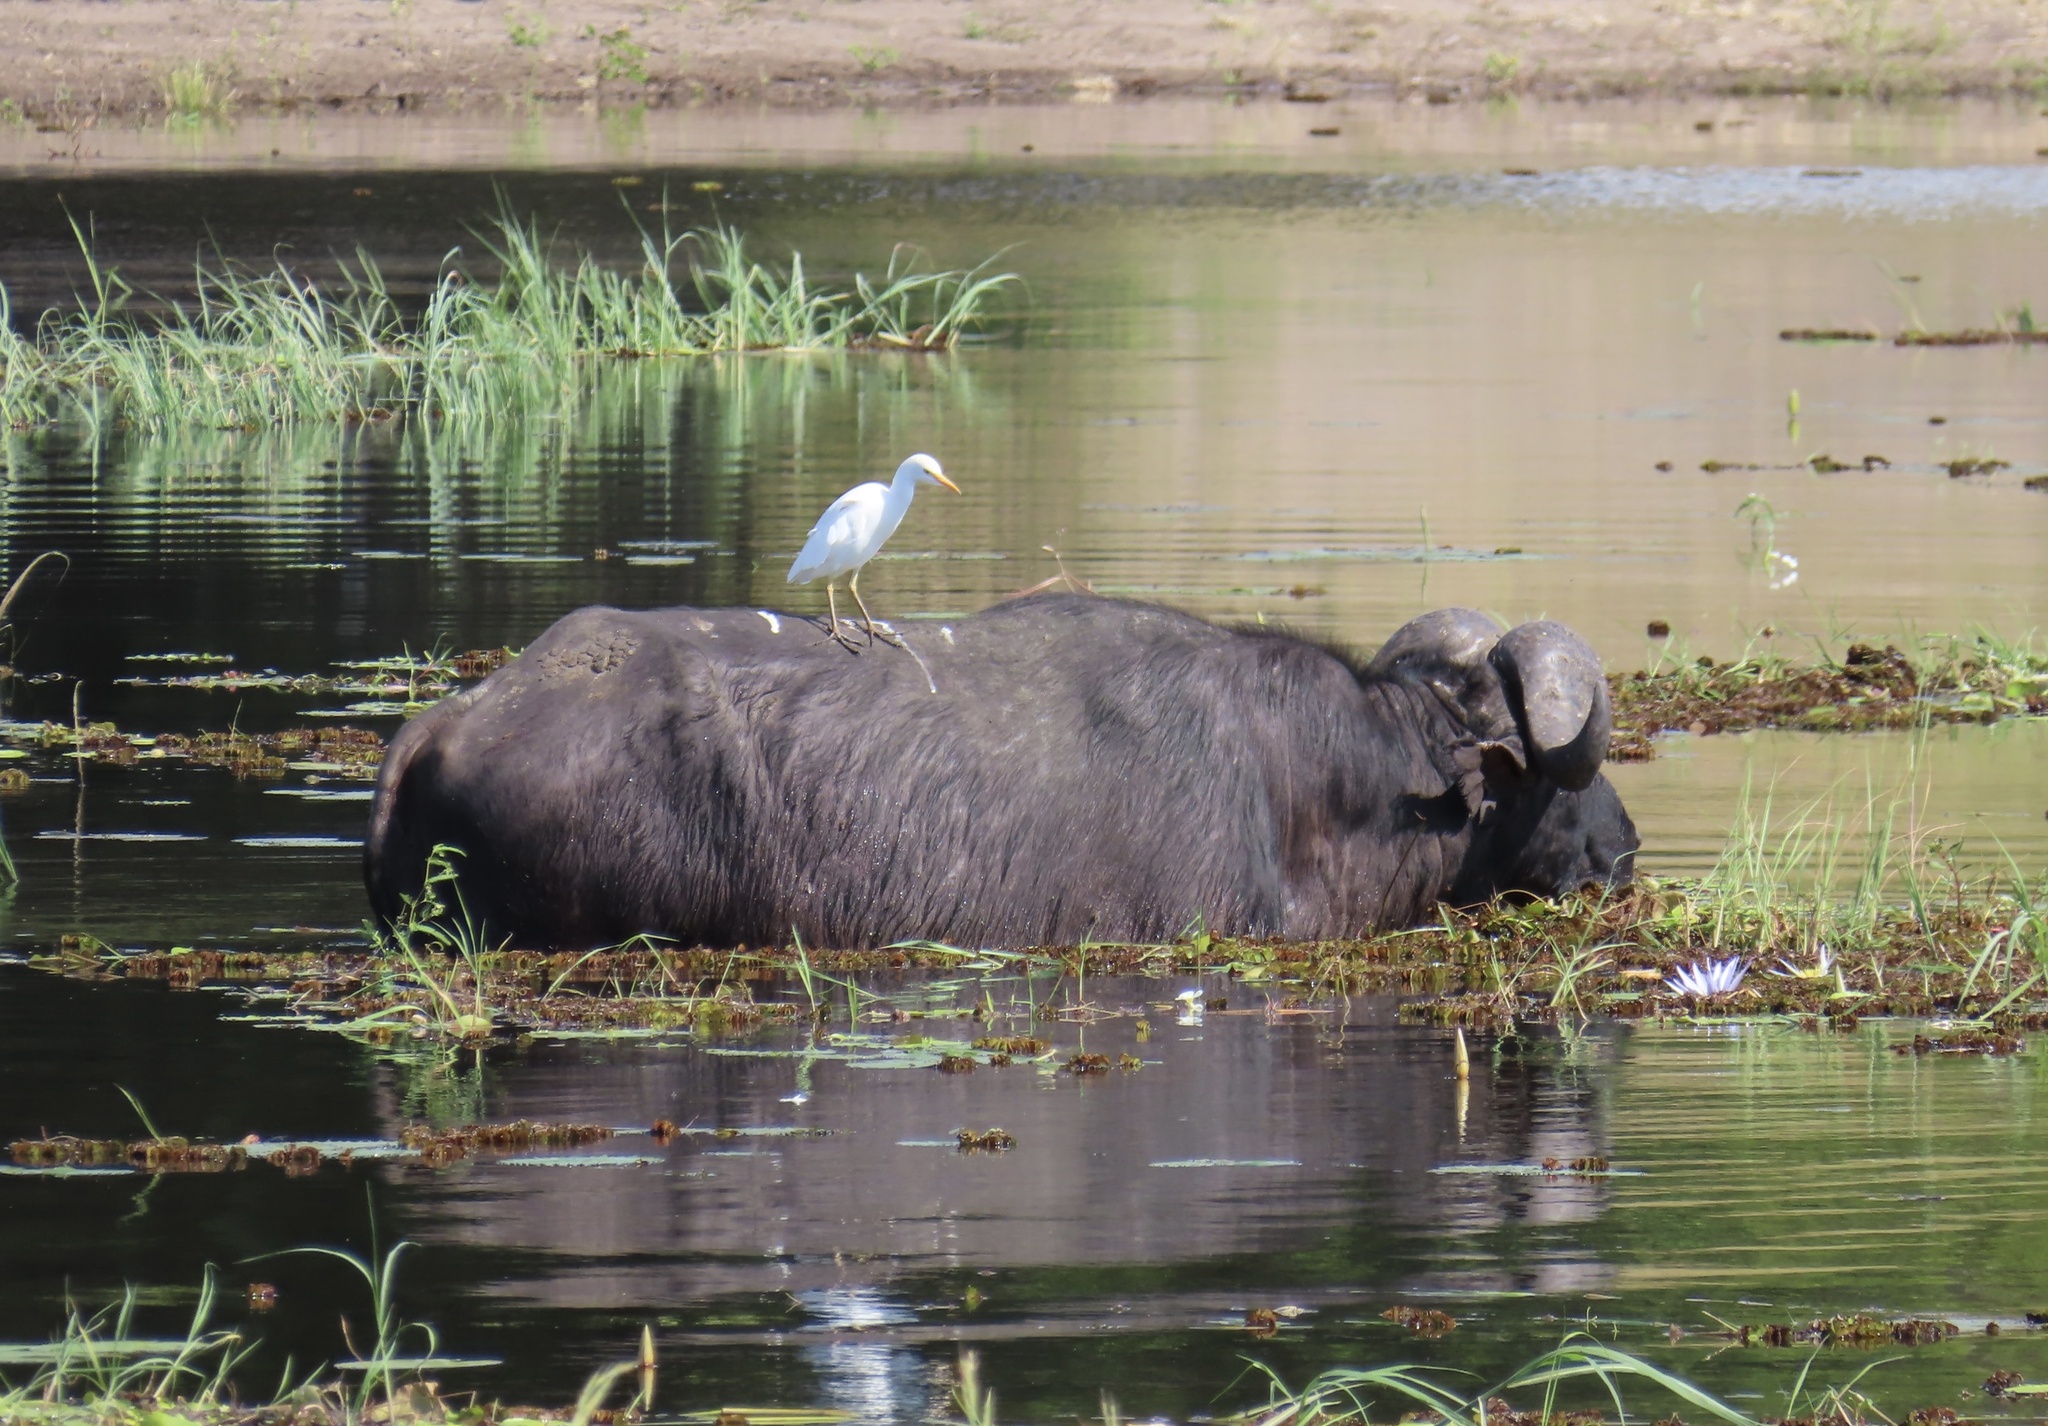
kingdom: Animalia
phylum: Chordata
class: Aves
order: Pelecaniformes
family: Ardeidae
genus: Bubulcus
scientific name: Bubulcus ibis
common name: Cattle egret
